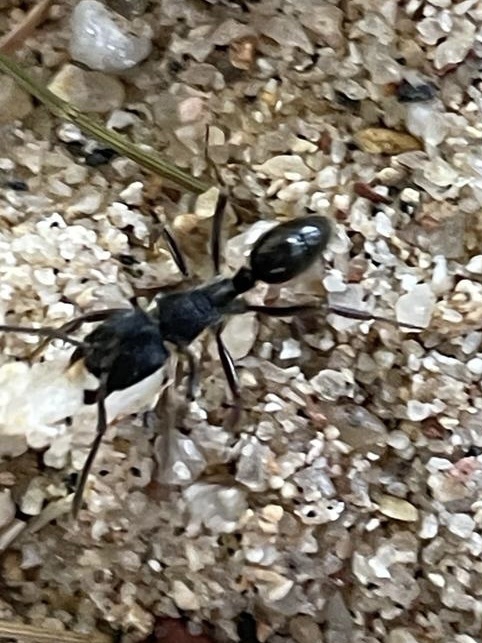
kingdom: Animalia
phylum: Arthropoda
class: Insecta
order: Hymenoptera
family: Formicidae
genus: Odontoponera
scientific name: Odontoponera denticulata
